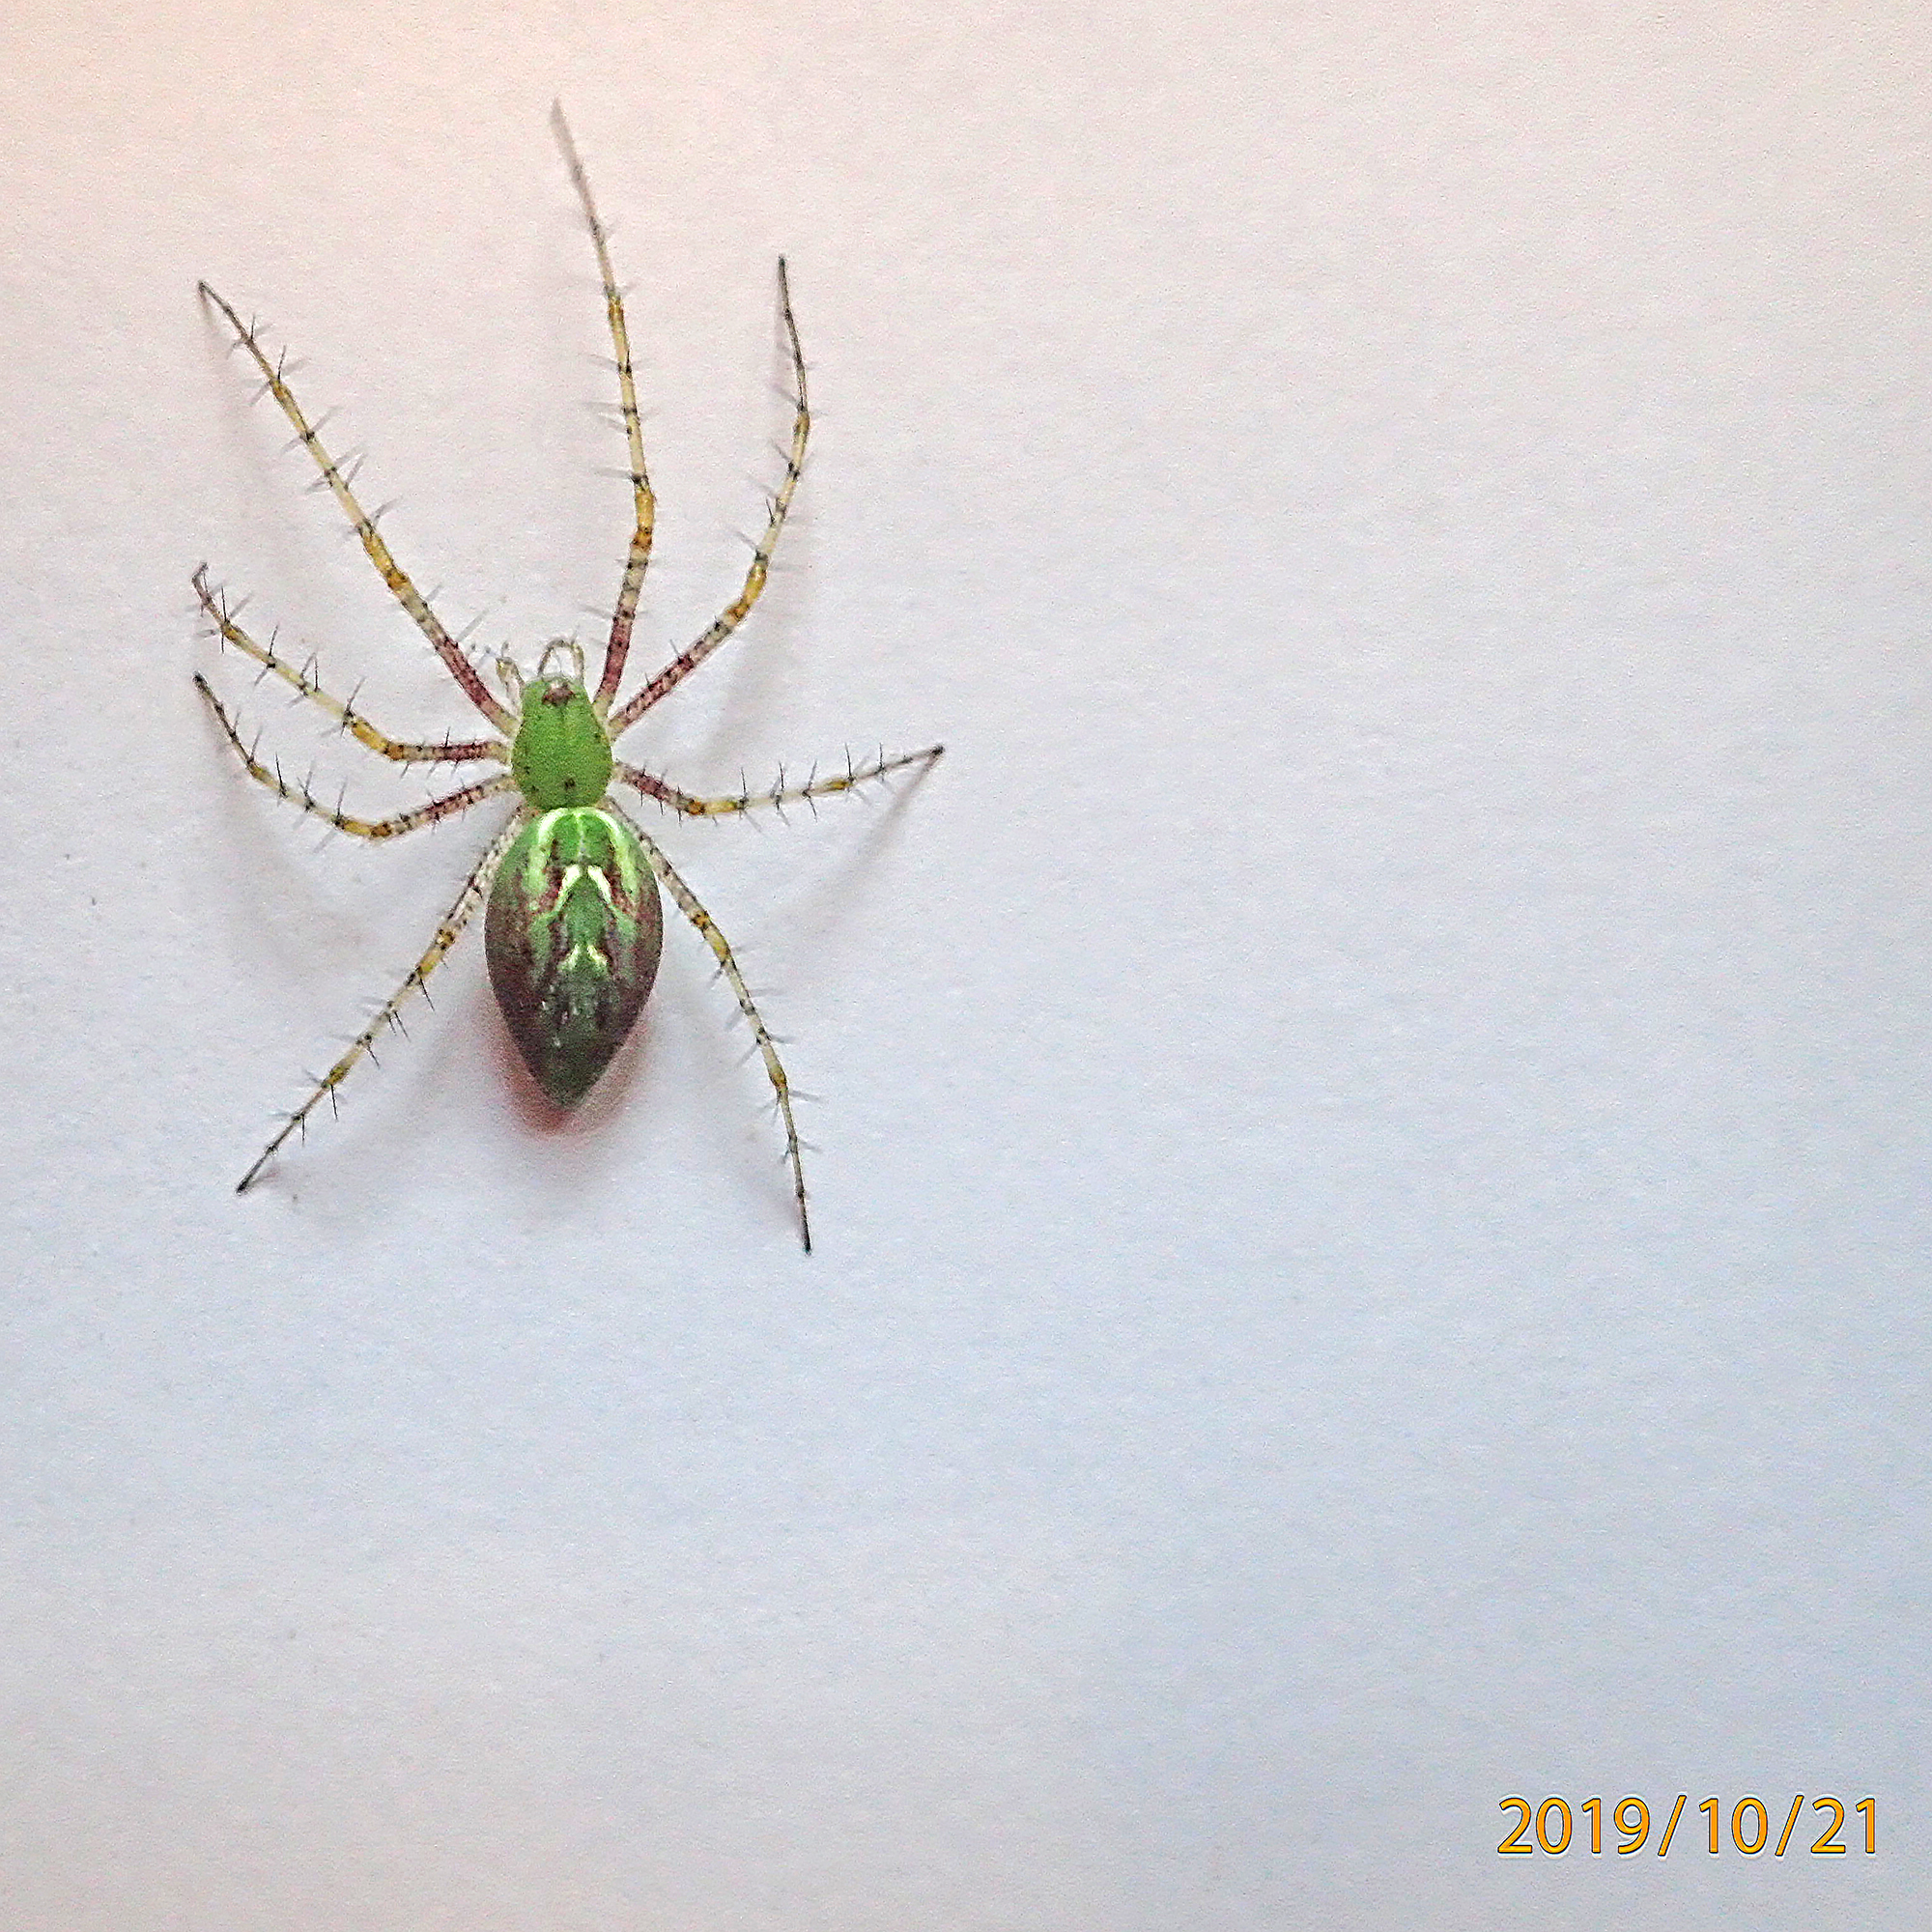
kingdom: Animalia
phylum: Arthropoda
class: Arachnida
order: Araneae
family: Oxyopidae
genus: Peucetia
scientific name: Peucetia viridans
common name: Lynx spiders
